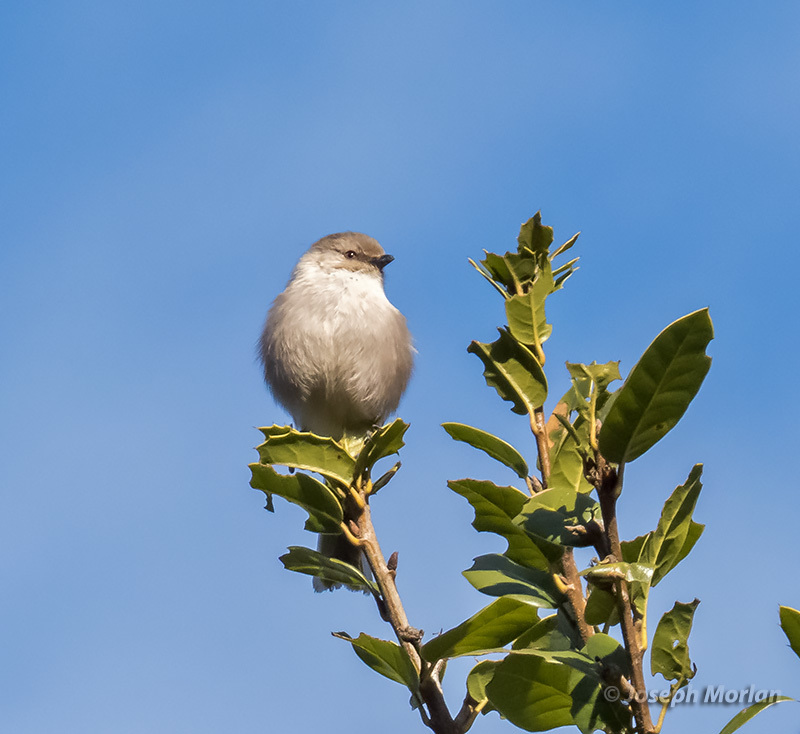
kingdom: Animalia
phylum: Chordata
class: Aves
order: Passeriformes
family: Aegithalidae
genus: Psaltriparus
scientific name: Psaltriparus minimus
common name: American bushtit
